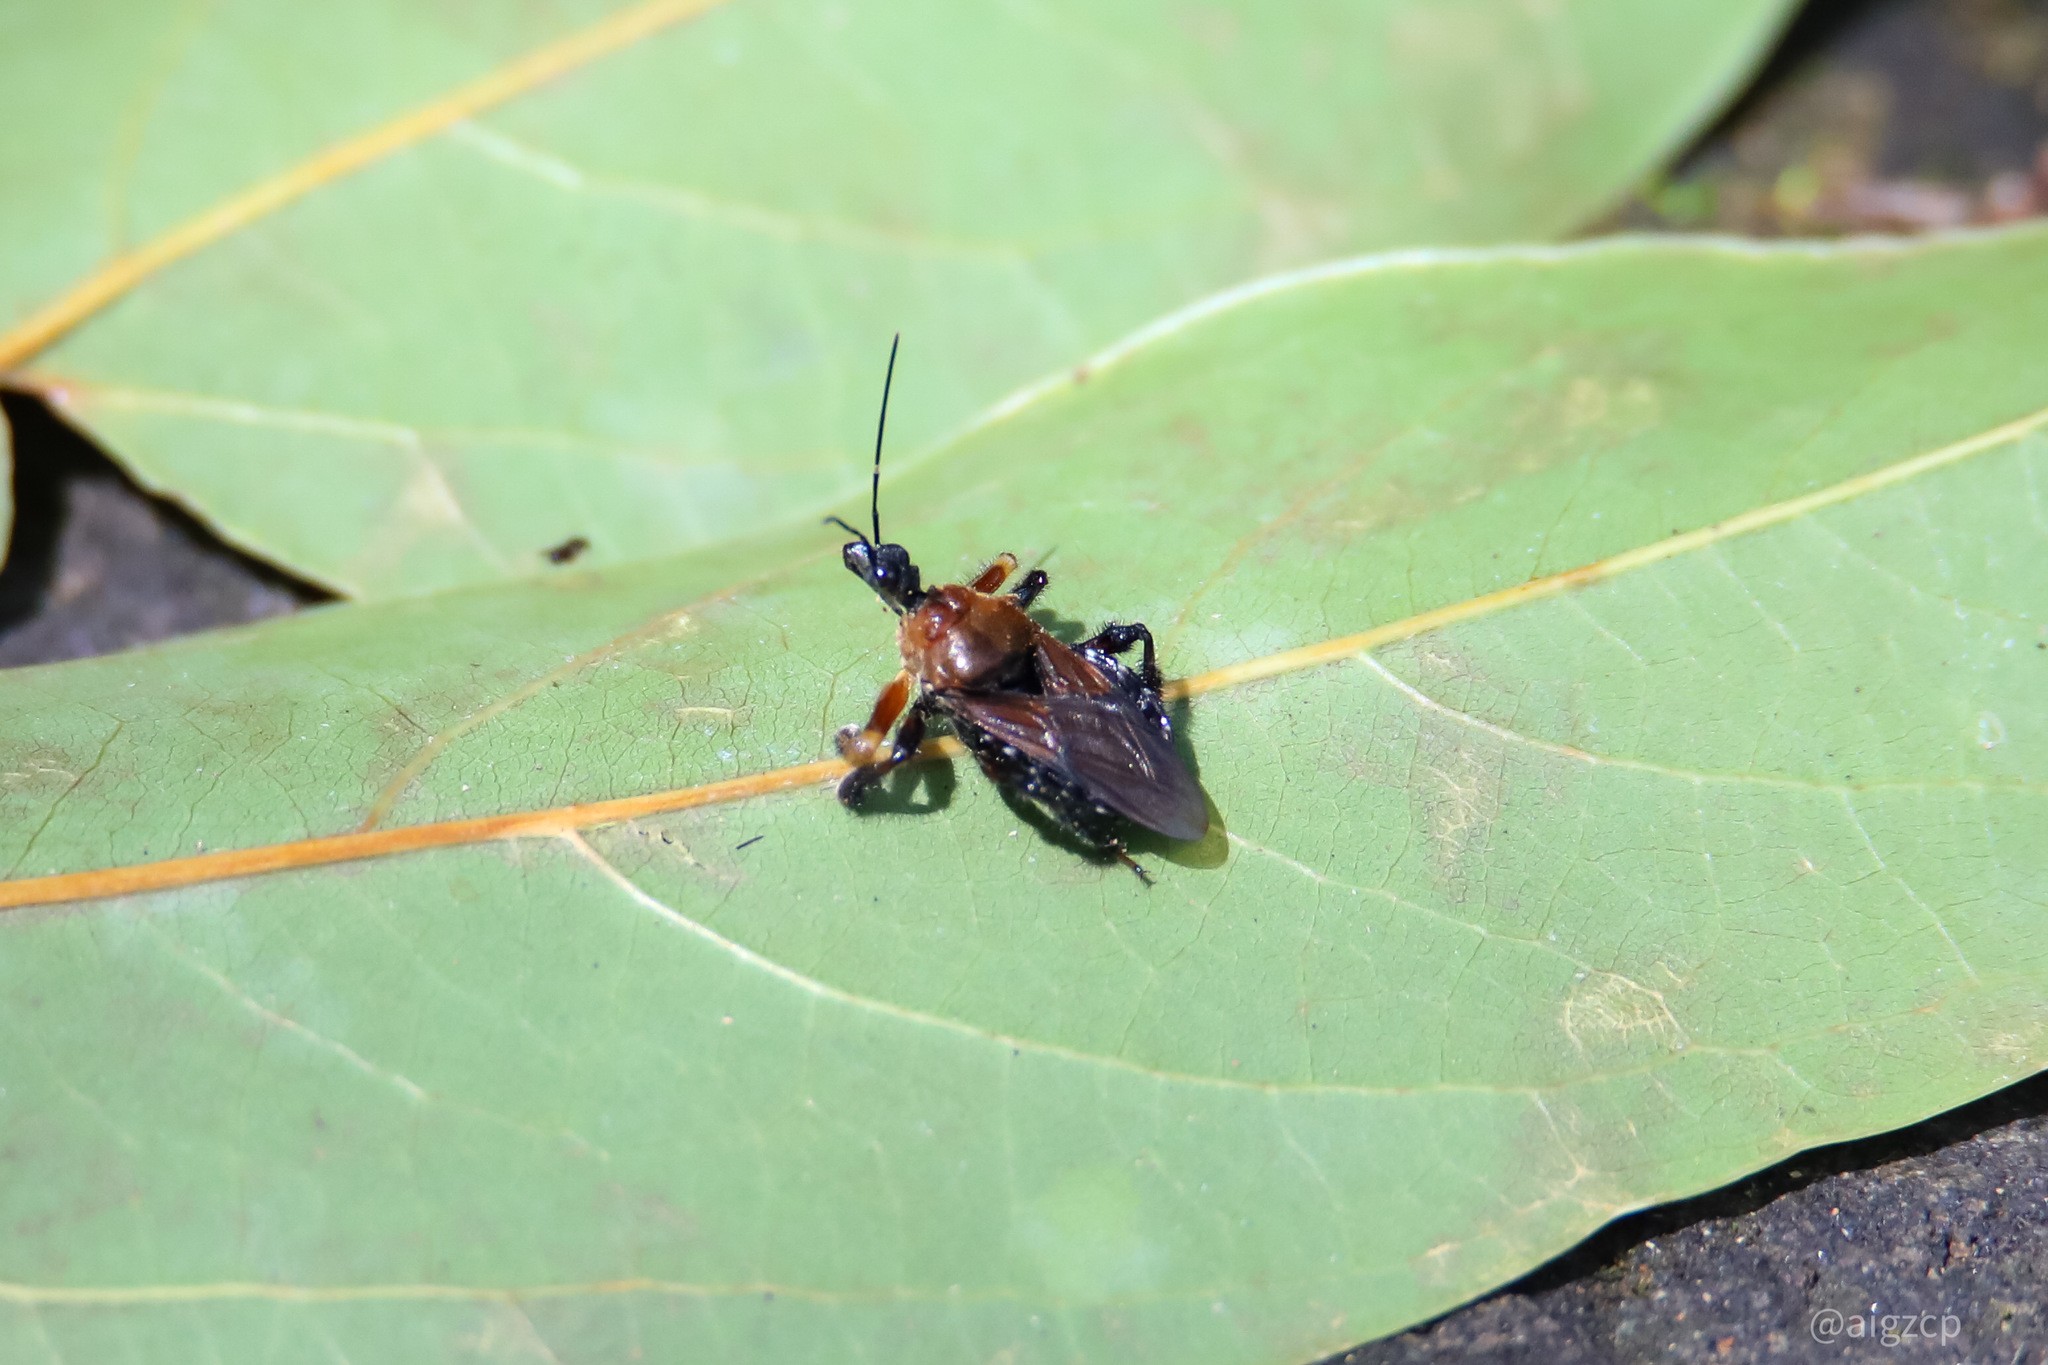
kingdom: Animalia
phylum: Arthropoda
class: Insecta
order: Hemiptera
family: Reduviidae
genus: Apiomerus
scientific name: Apiomerus colombianus
